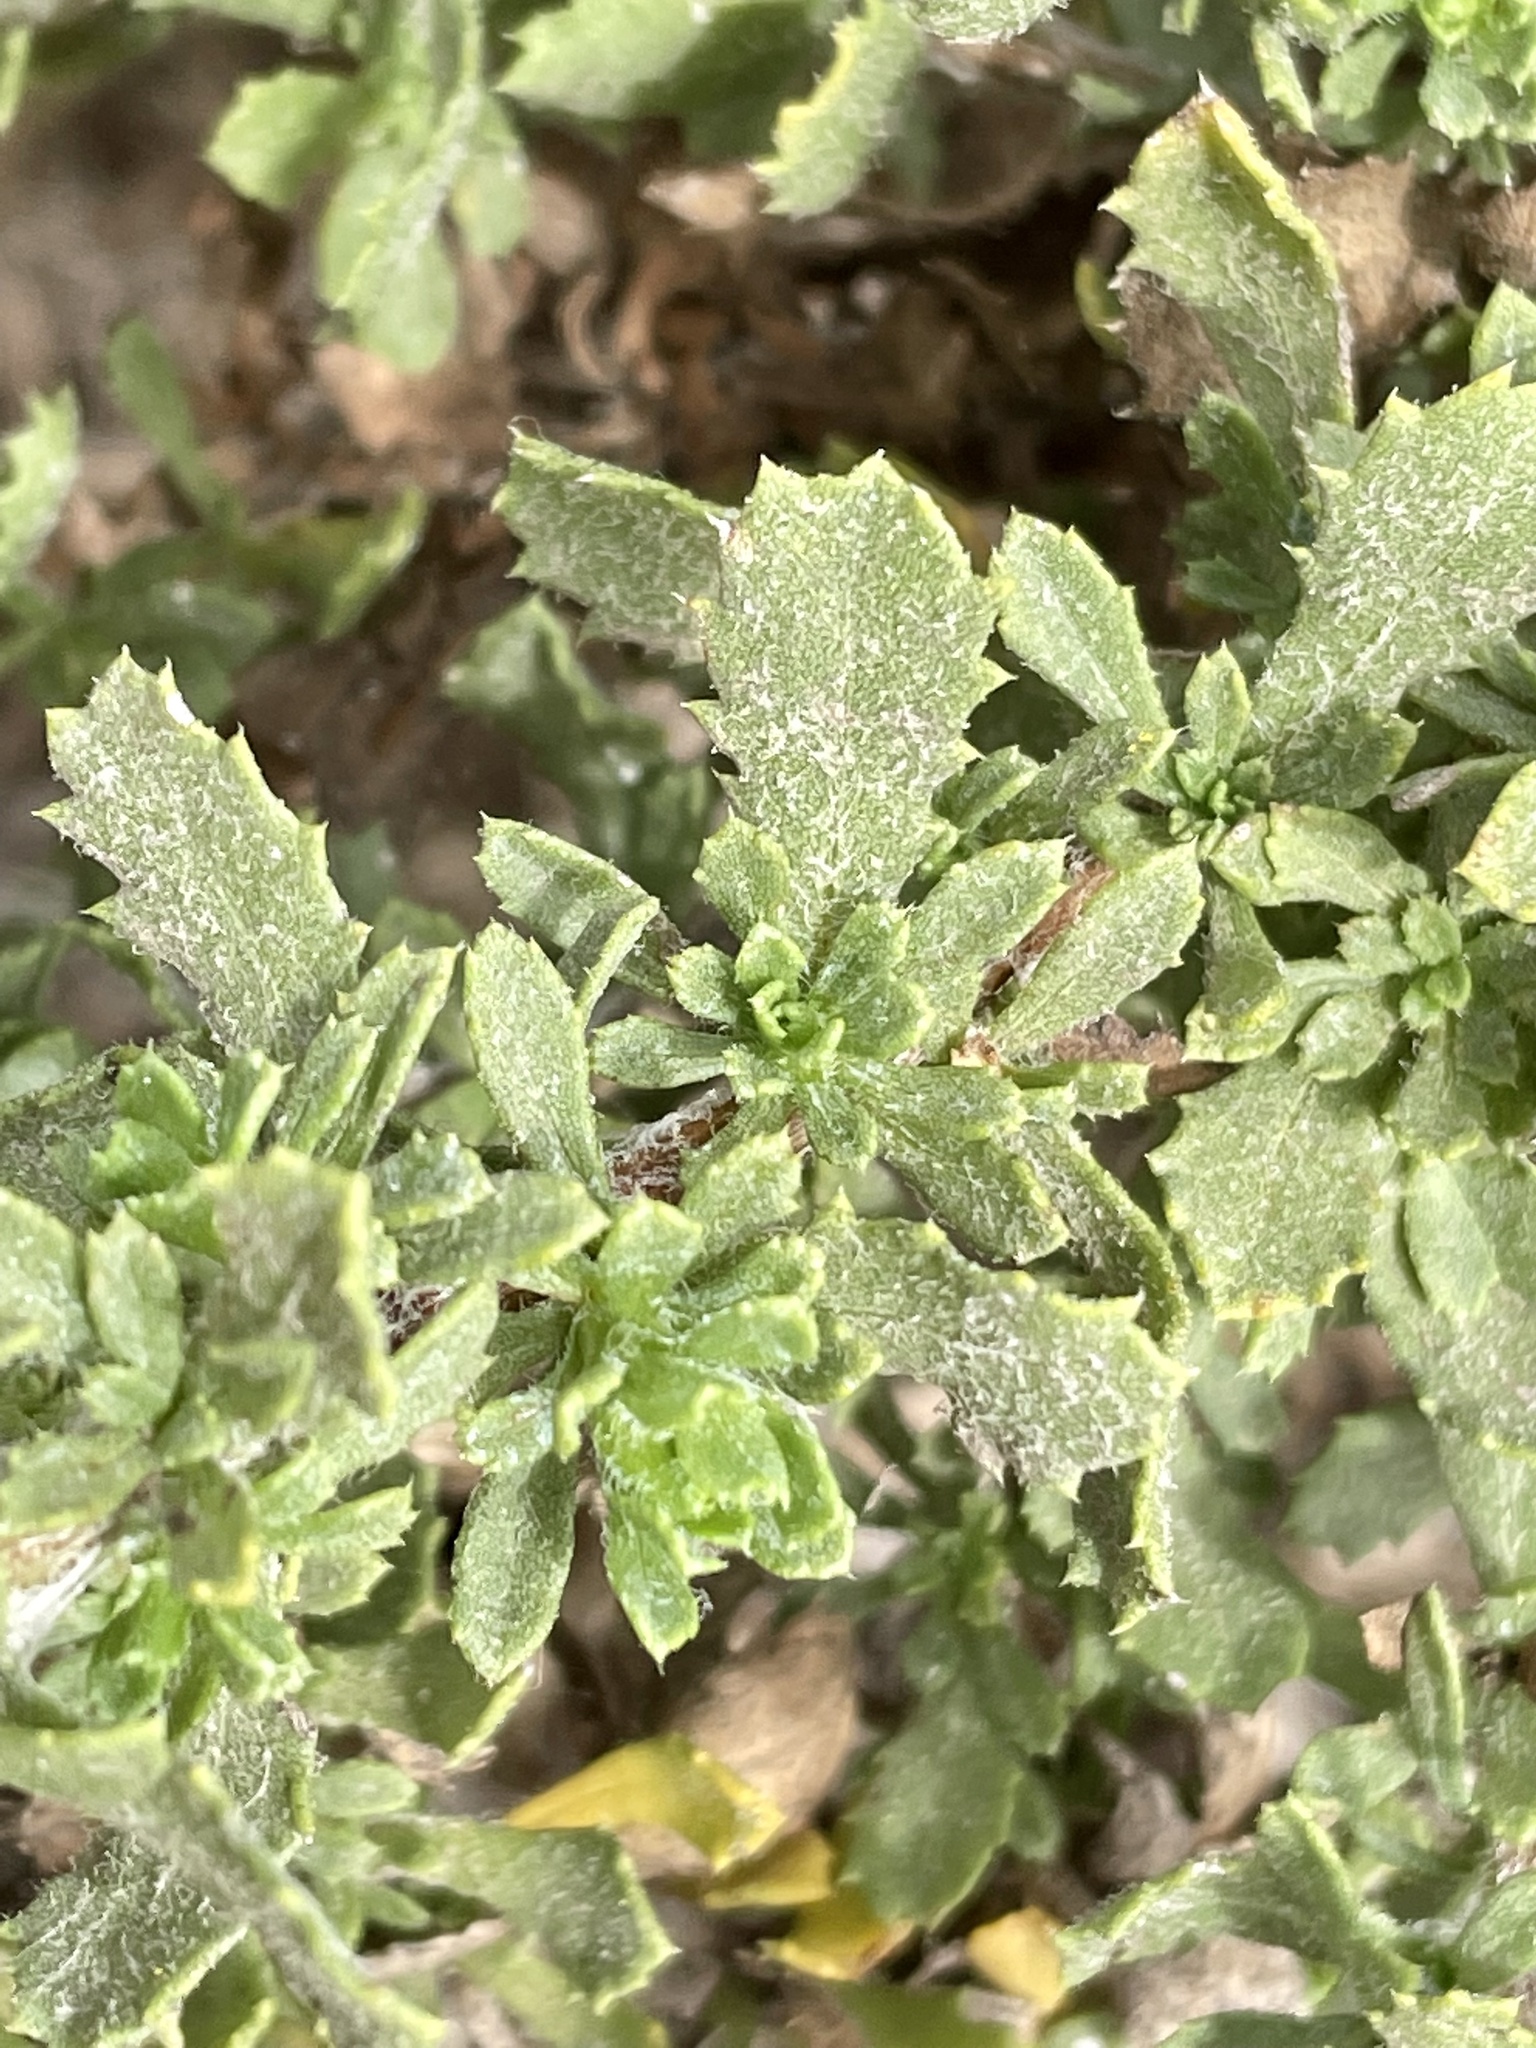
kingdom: Plantae
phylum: Tracheophyta
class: Magnoliopsida
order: Asterales
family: Asteraceae
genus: Isocoma
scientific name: Isocoma menziesii
